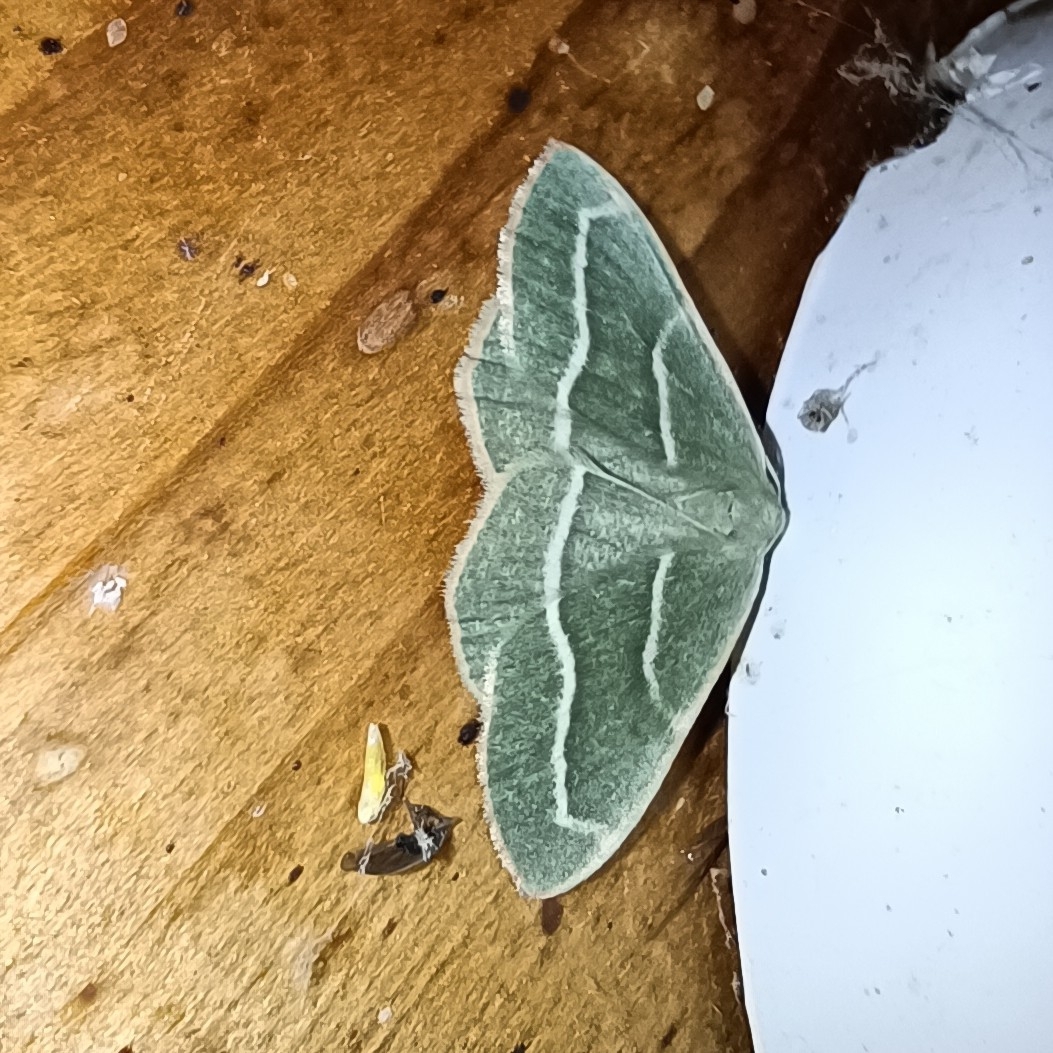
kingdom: Animalia
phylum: Arthropoda
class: Insecta
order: Lepidoptera
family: Geometridae
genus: Hylaea
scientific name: Hylaea fasciaria
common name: Barred red
